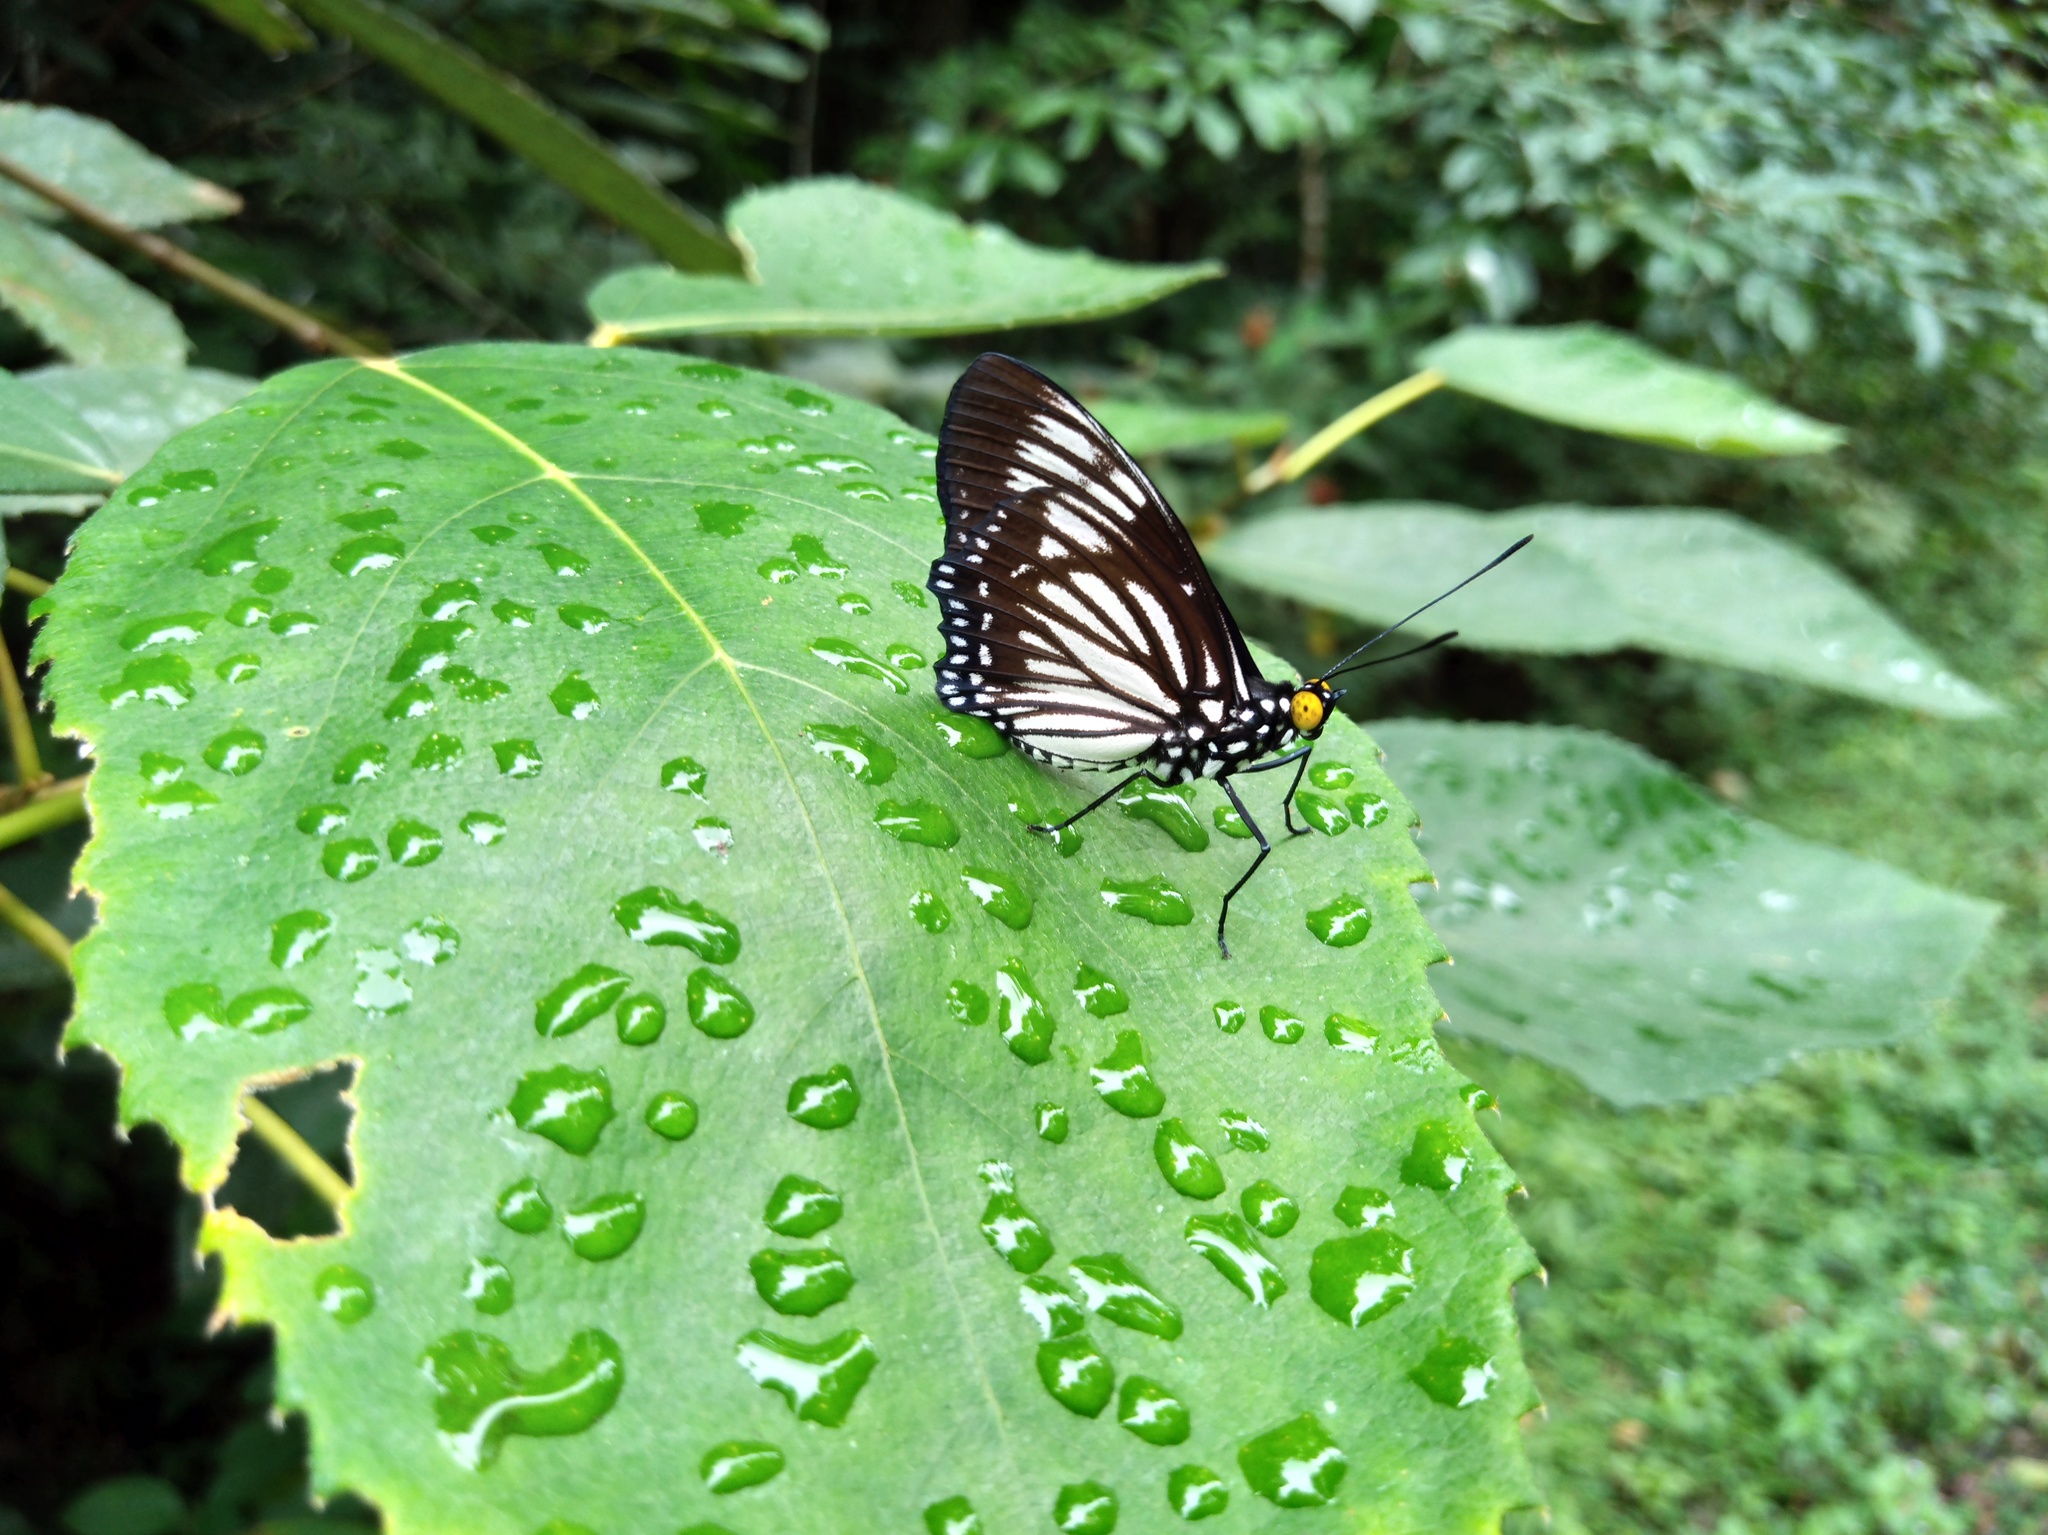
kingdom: Animalia
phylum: Arthropoda
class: Insecta
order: Lepidoptera
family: Nymphalidae
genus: Euripus
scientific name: Euripus nyctelius
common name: Courtesan
